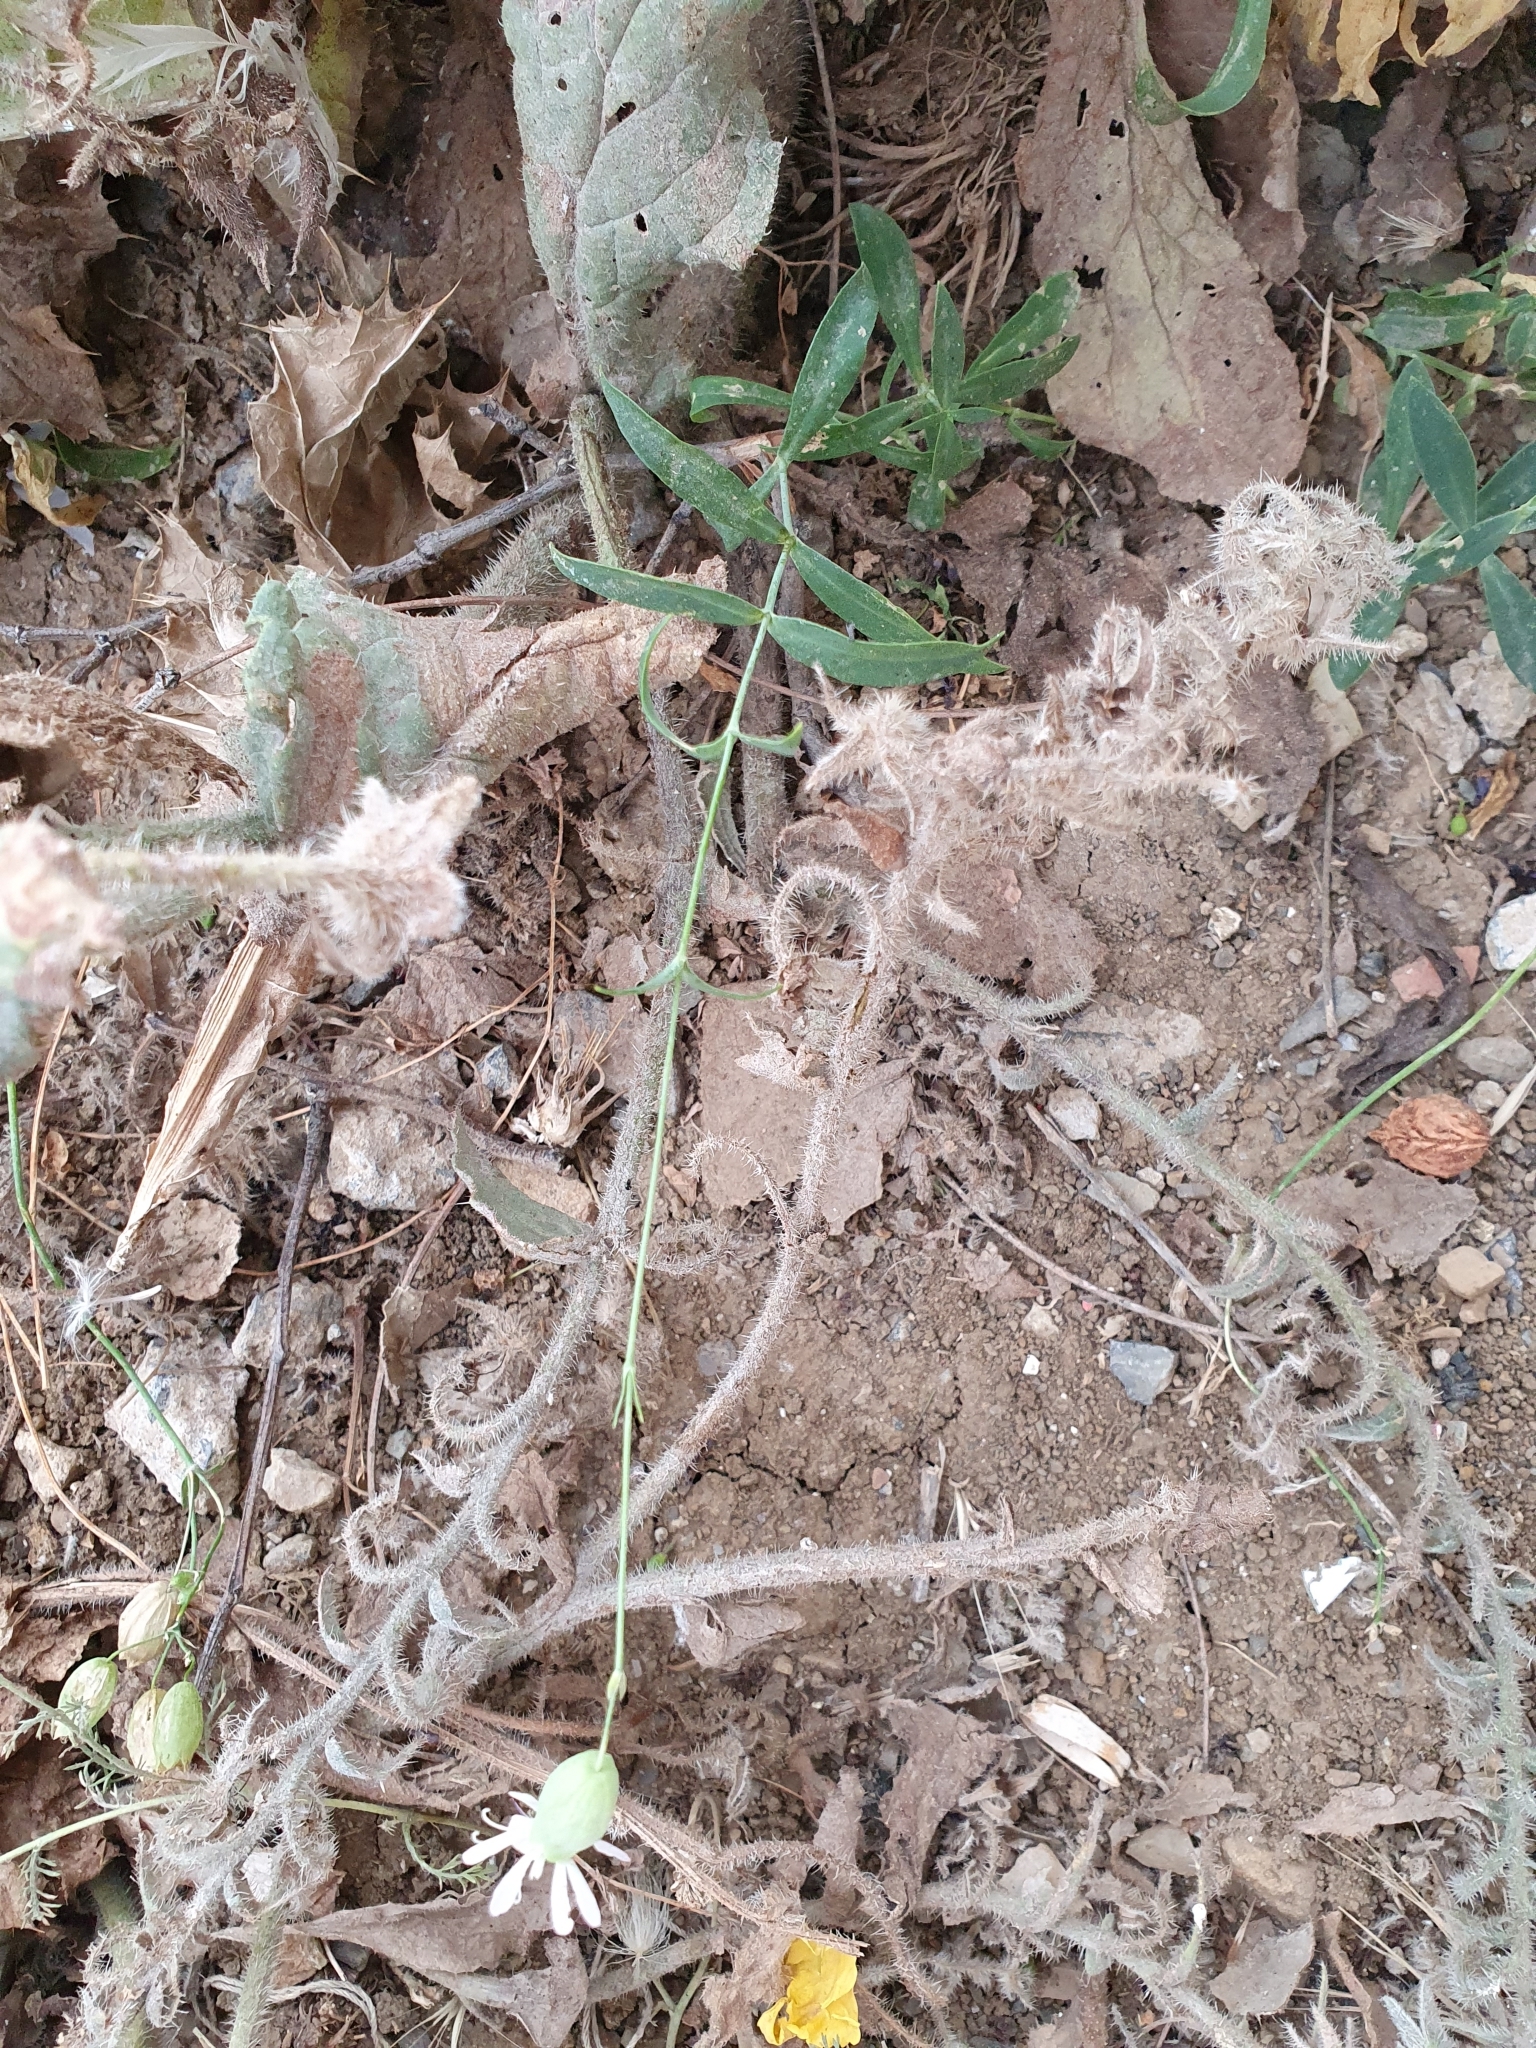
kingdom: Plantae
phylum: Tracheophyta
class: Magnoliopsida
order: Caryophyllales
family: Caryophyllaceae
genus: Silene
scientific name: Silene vulgaris
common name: Bladder campion
